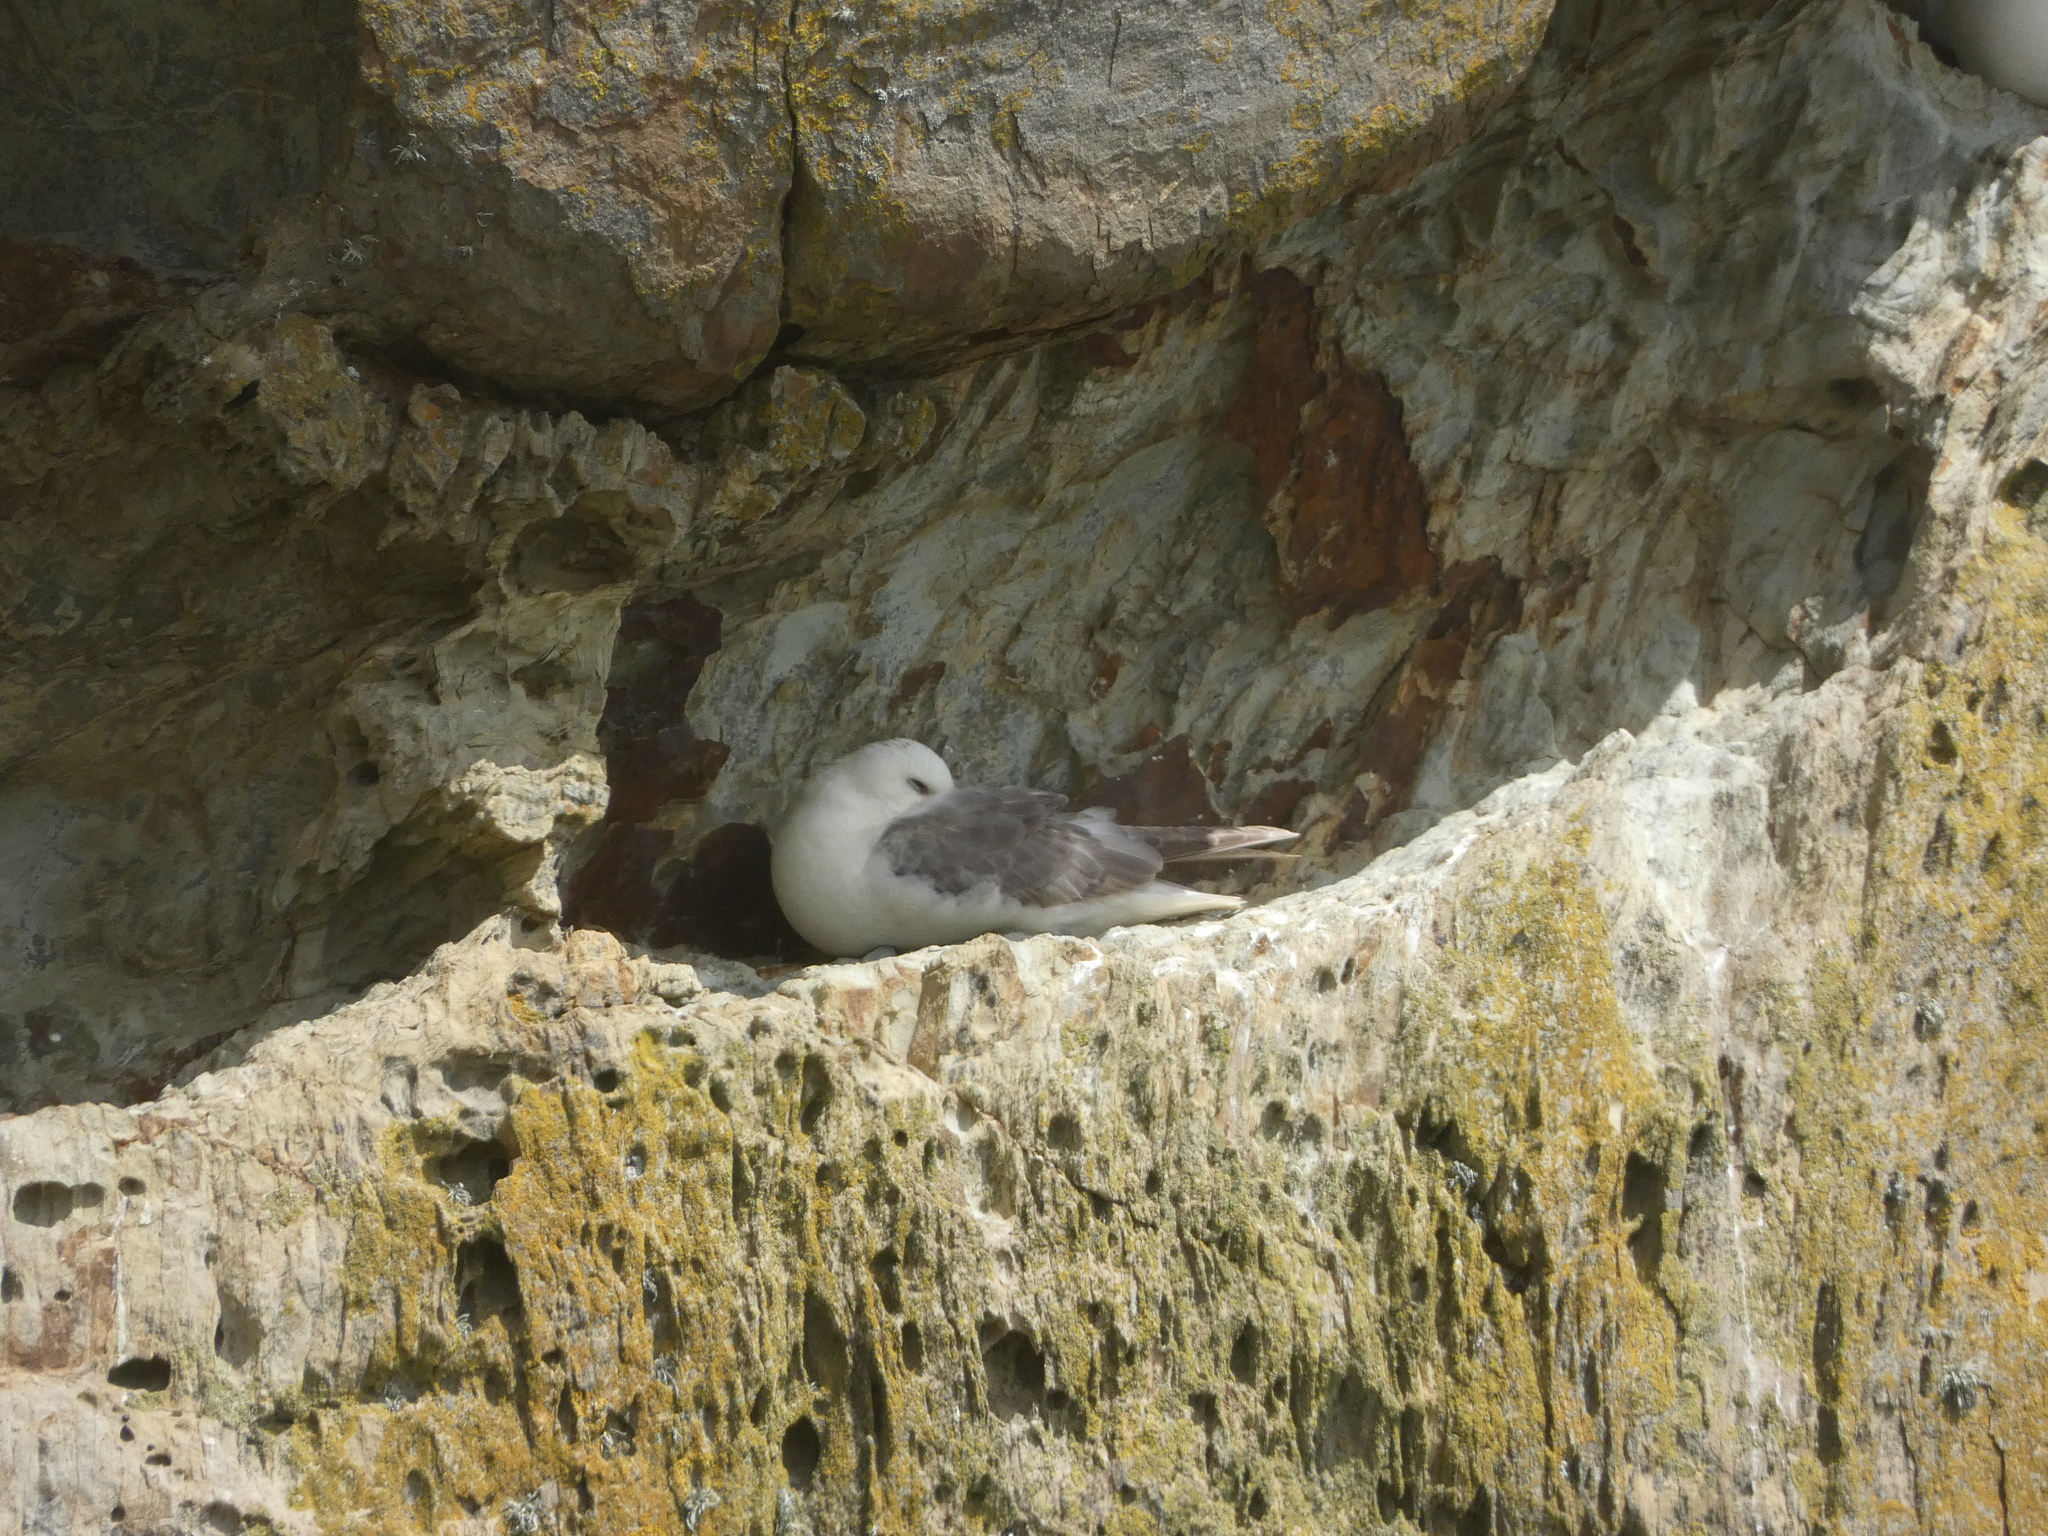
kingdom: Animalia
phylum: Chordata
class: Aves
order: Procellariiformes
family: Procellariidae
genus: Fulmarus
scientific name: Fulmarus glacialis
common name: Northern fulmar
